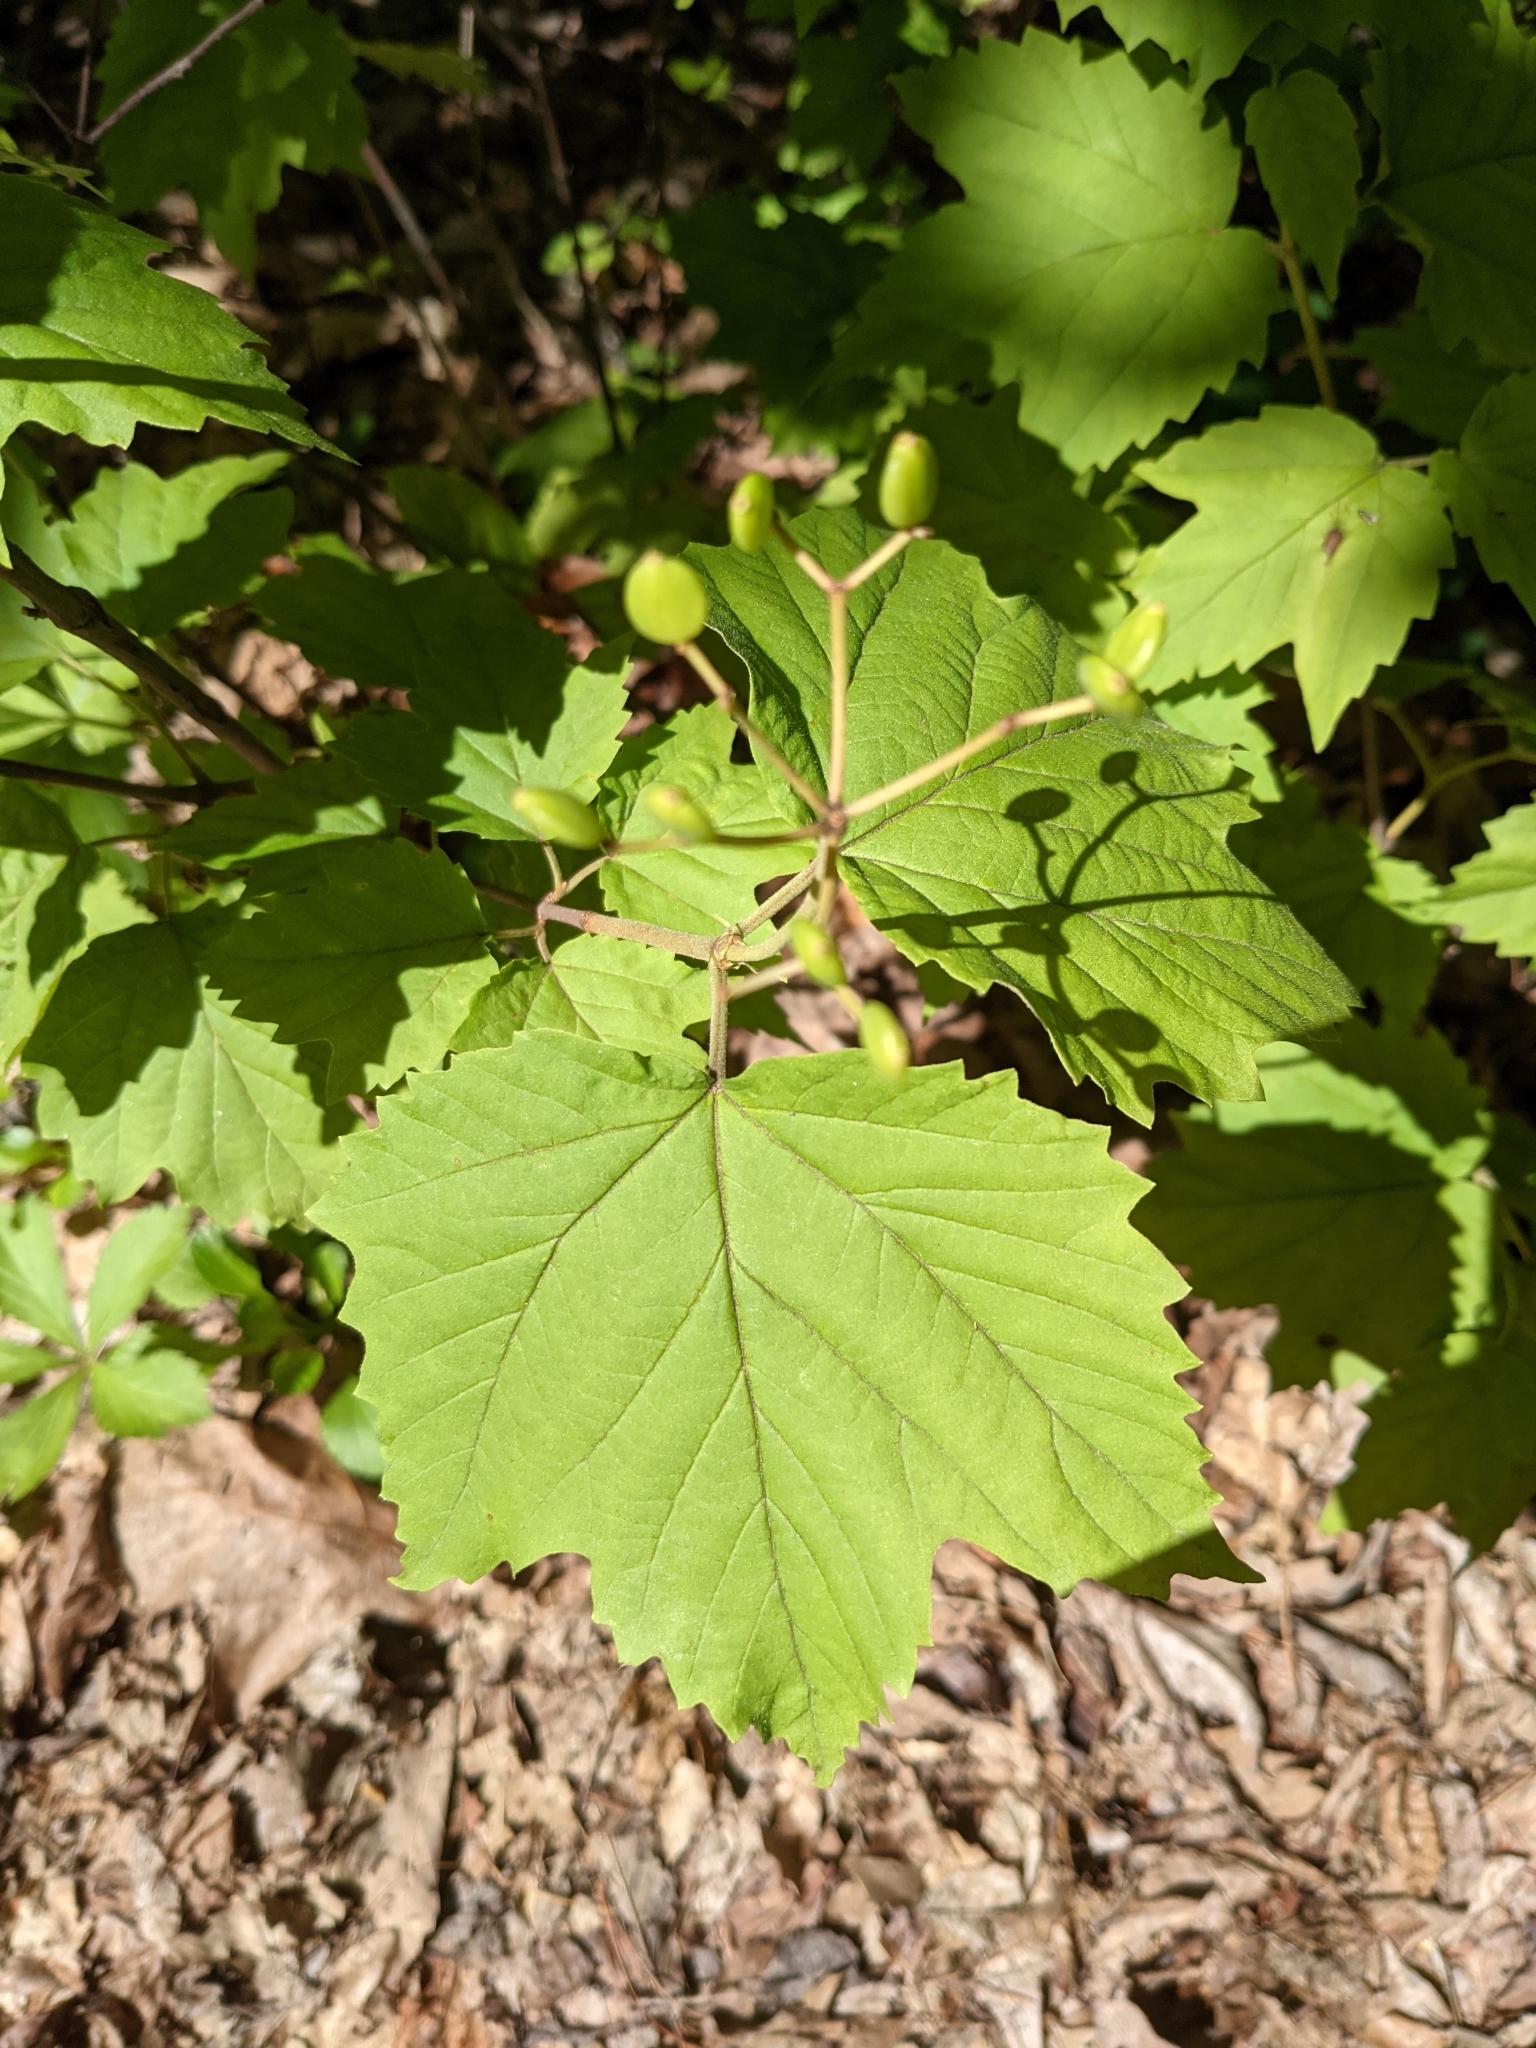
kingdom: Plantae
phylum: Tracheophyta
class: Magnoliopsida
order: Dipsacales
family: Viburnaceae
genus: Viburnum
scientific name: Viburnum acerifolium
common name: Dockmackie
